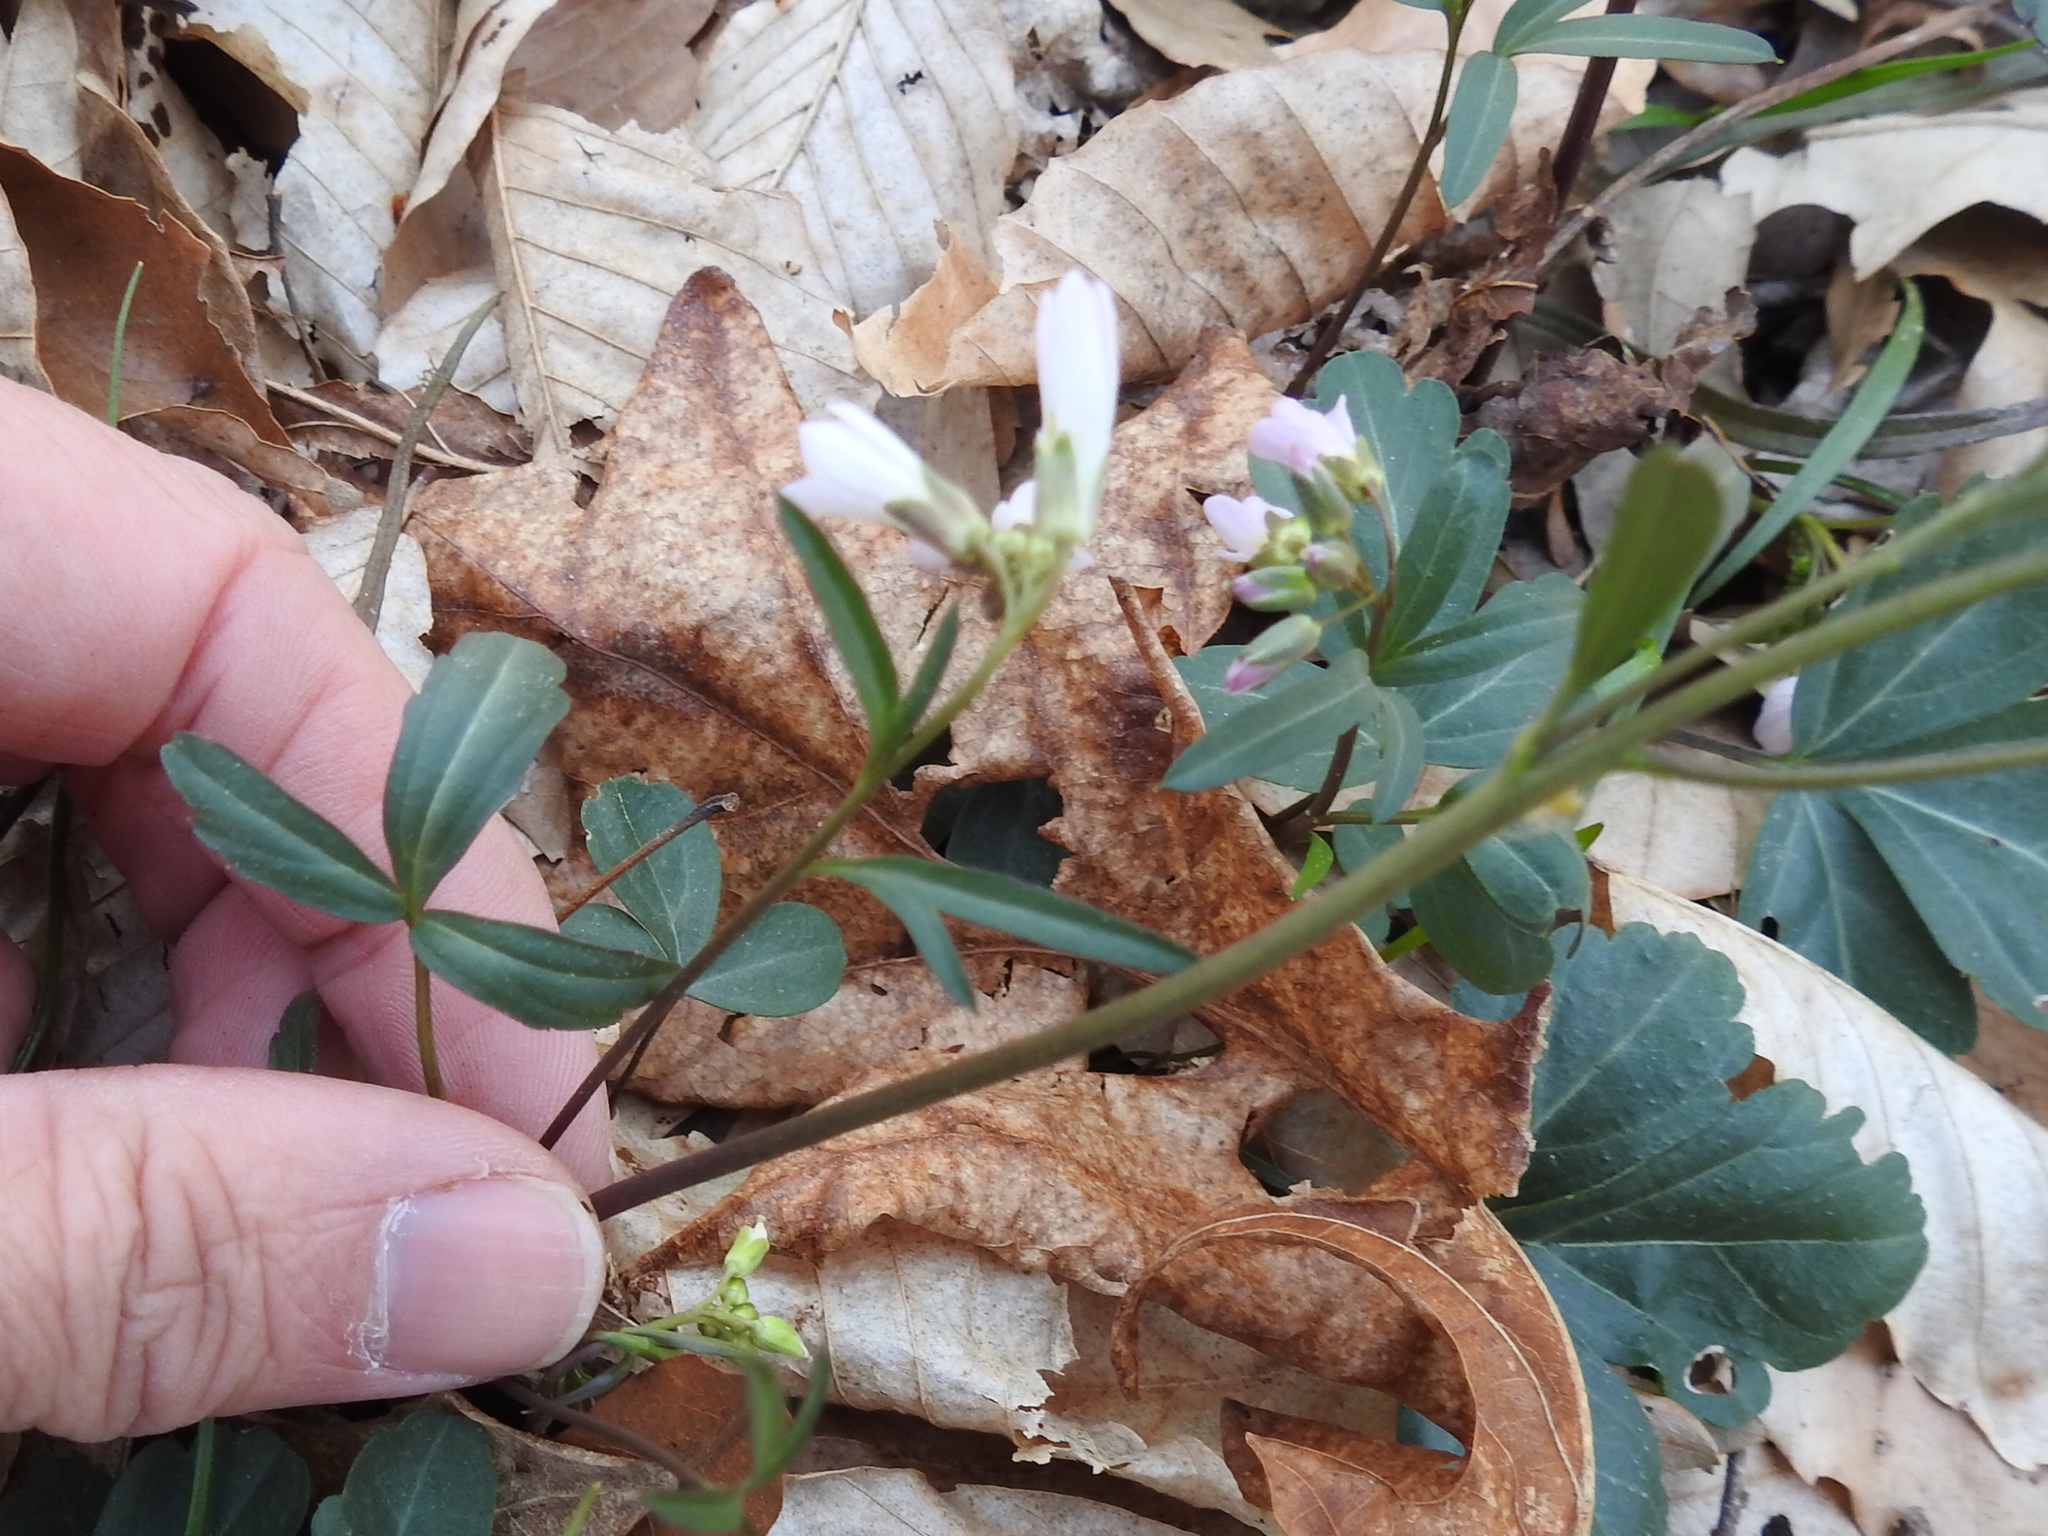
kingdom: Plantae
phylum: Tracheophyta
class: Magnoliopsida
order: Brassicales
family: Brassicaceae
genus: Cardamine
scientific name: Cardamine angustata
